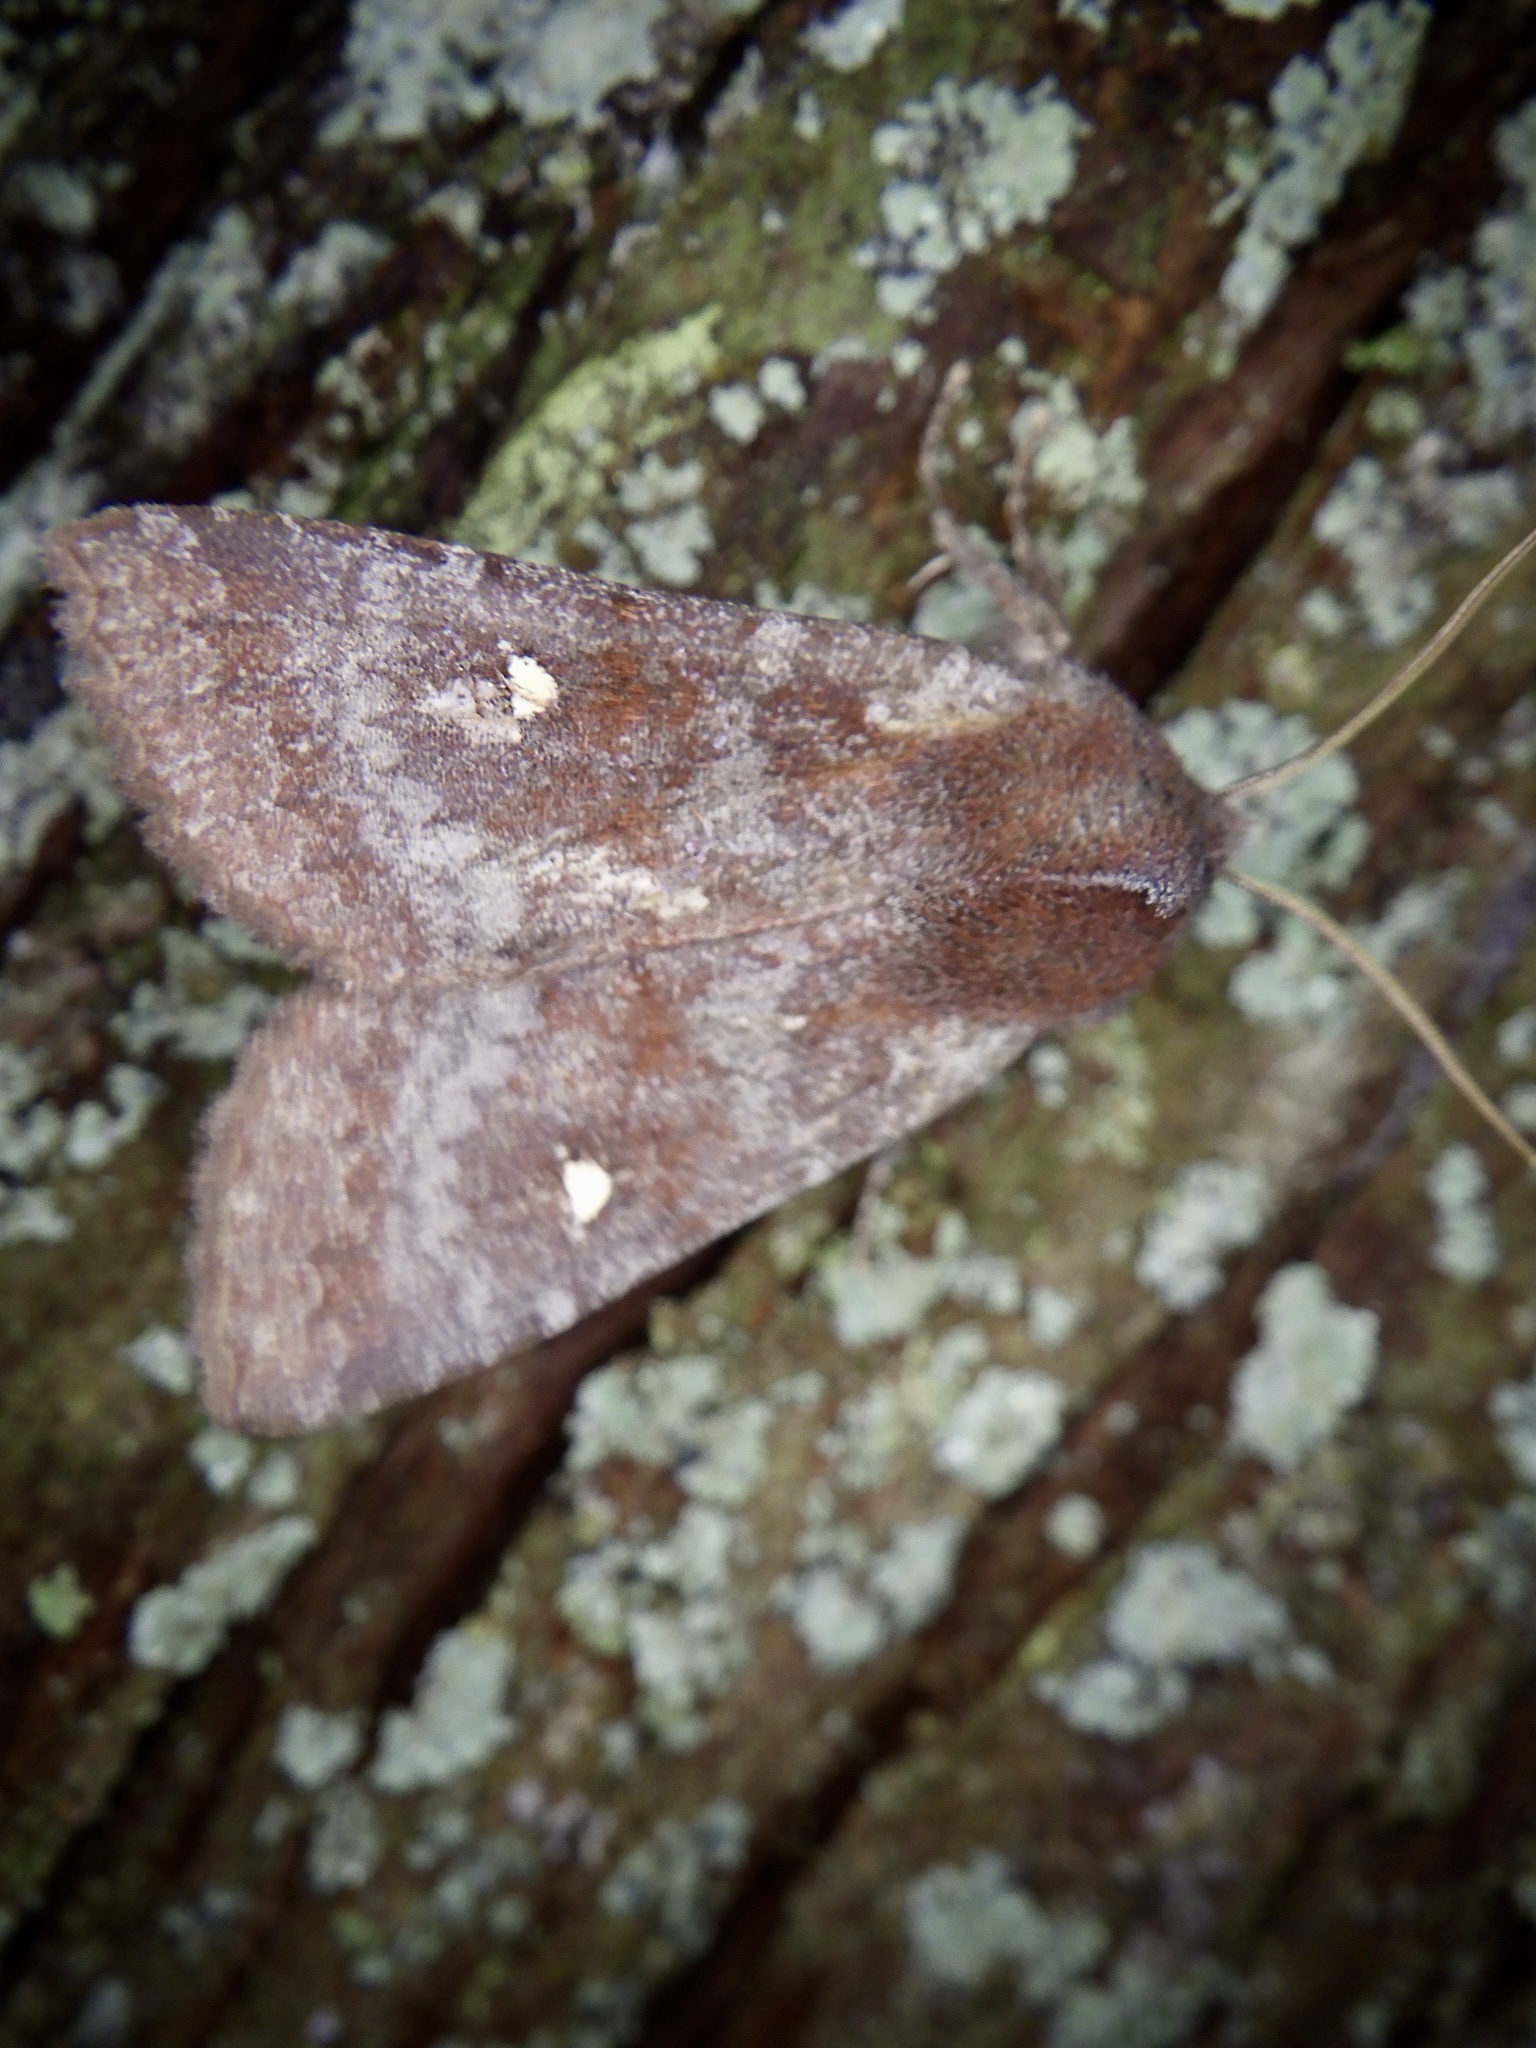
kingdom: Animalia
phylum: Arthropoda
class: Insecta
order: Lepidoptera
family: Noctuidae
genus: Eupsilia
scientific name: Eupsilia unipuncta
